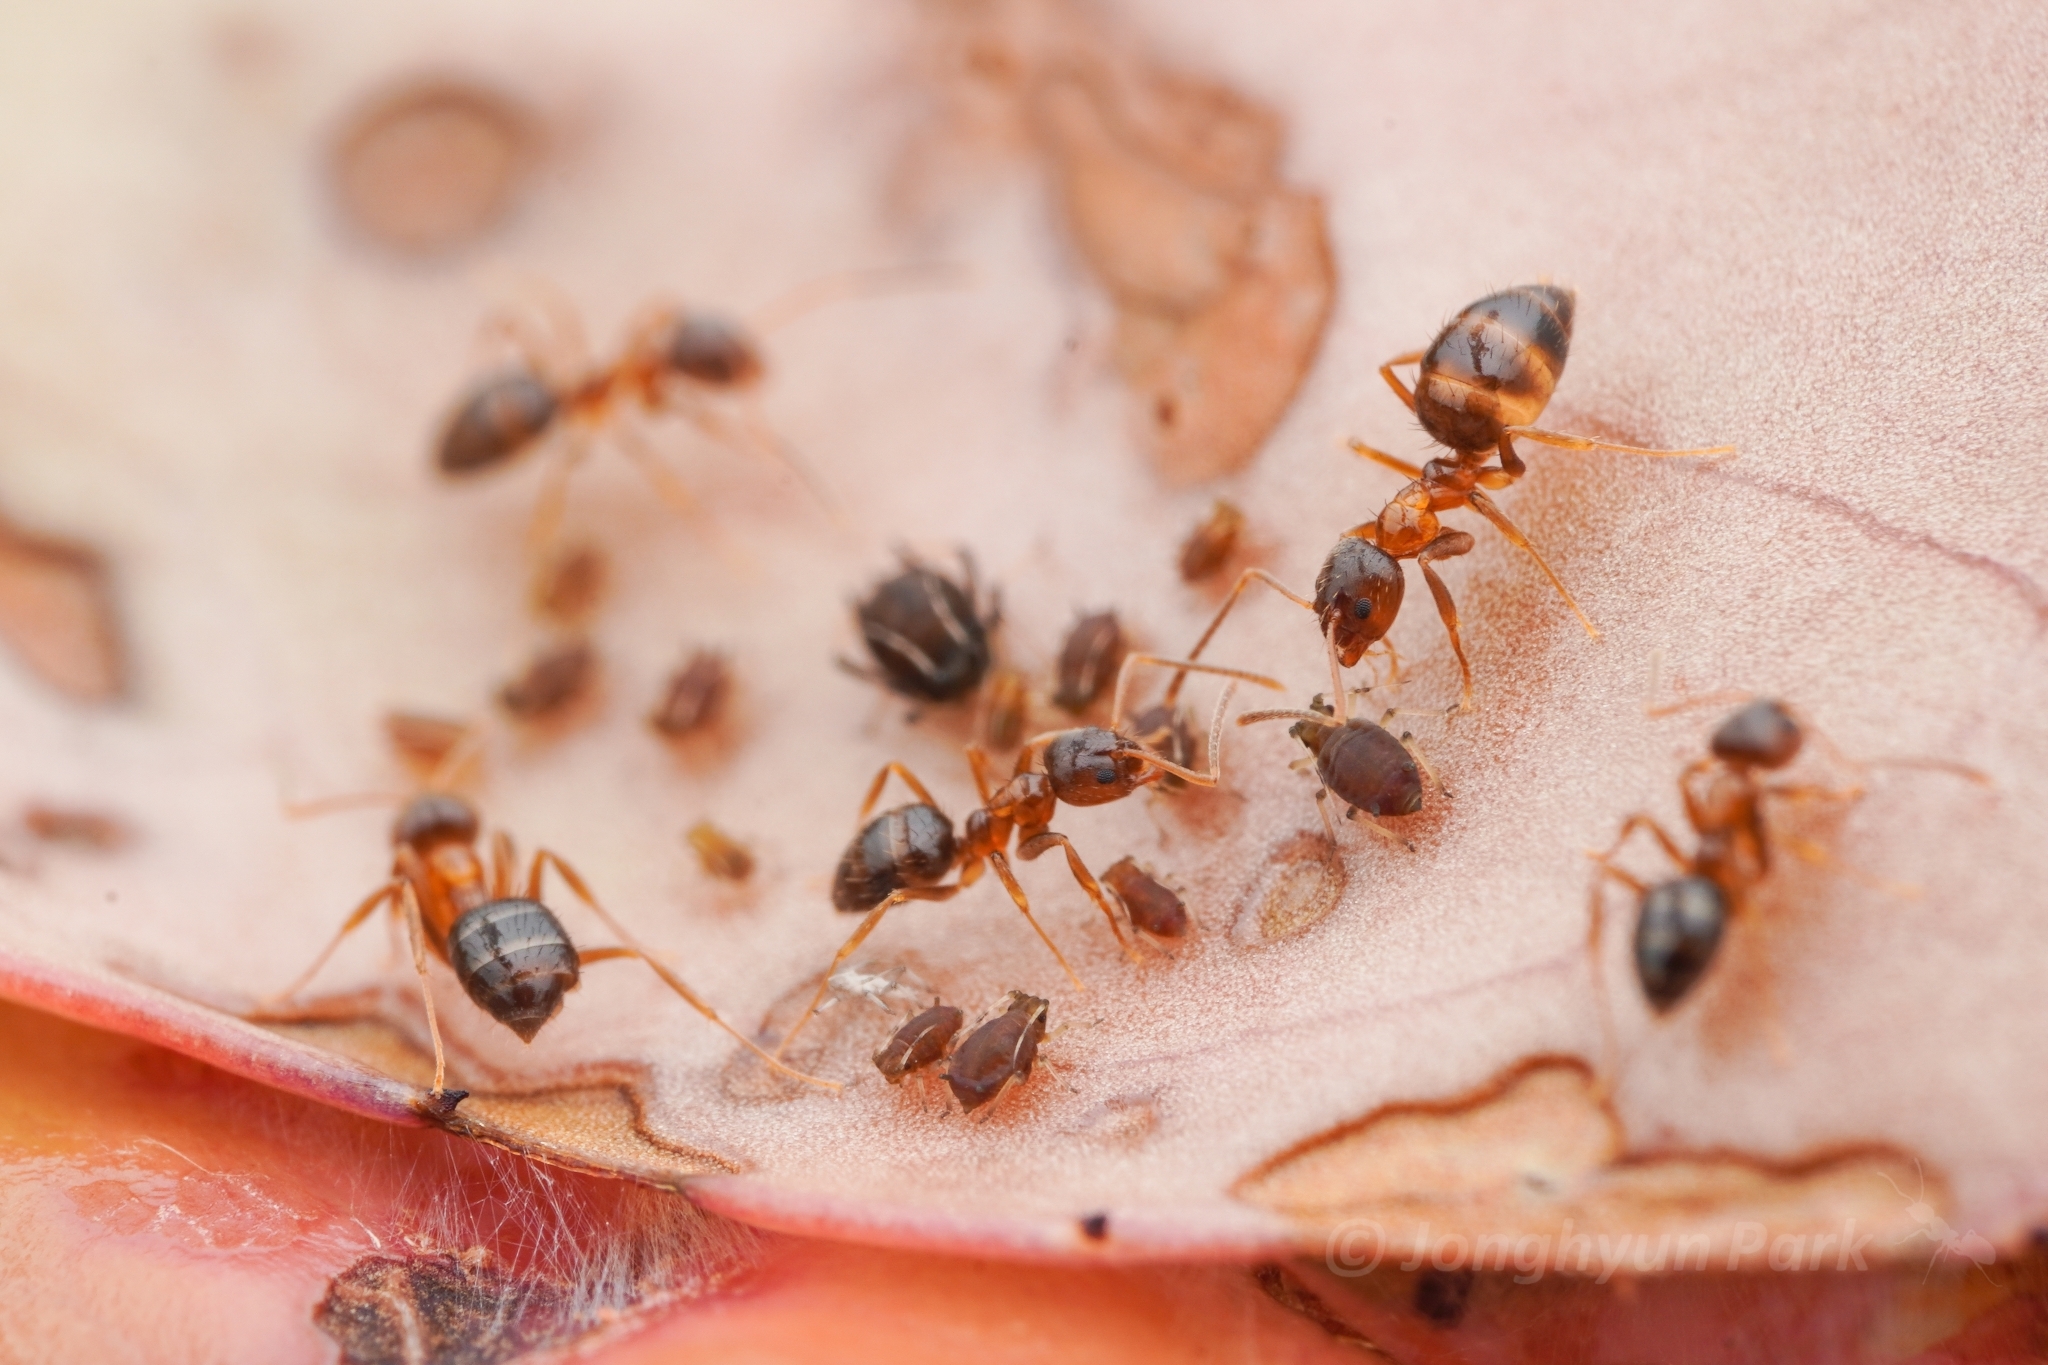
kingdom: Animalia
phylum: Arthropoda
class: Insecta
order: Hymenoptera
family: Formicidae
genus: Paratrechina
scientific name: Paratrechina flavipes
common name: Eastern asian formicine ant
